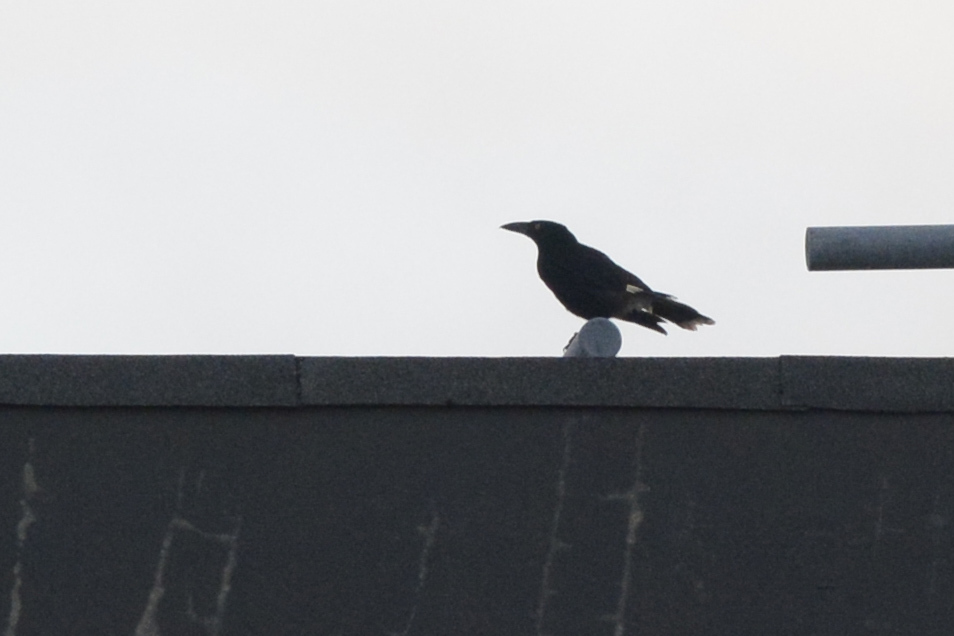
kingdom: Animalia
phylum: Chordata
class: Aves
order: Passeriformes
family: Cracticidae
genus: Strepera
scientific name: Strepera graculina
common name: Pied currawong
